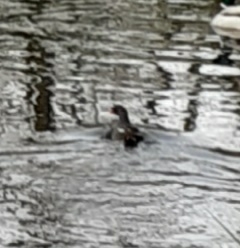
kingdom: Animalia
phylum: Chordata
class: Aves
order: Gruiformes
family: Rallidae
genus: Gallinula
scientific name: Gallinula chloropus
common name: Common moorhen
